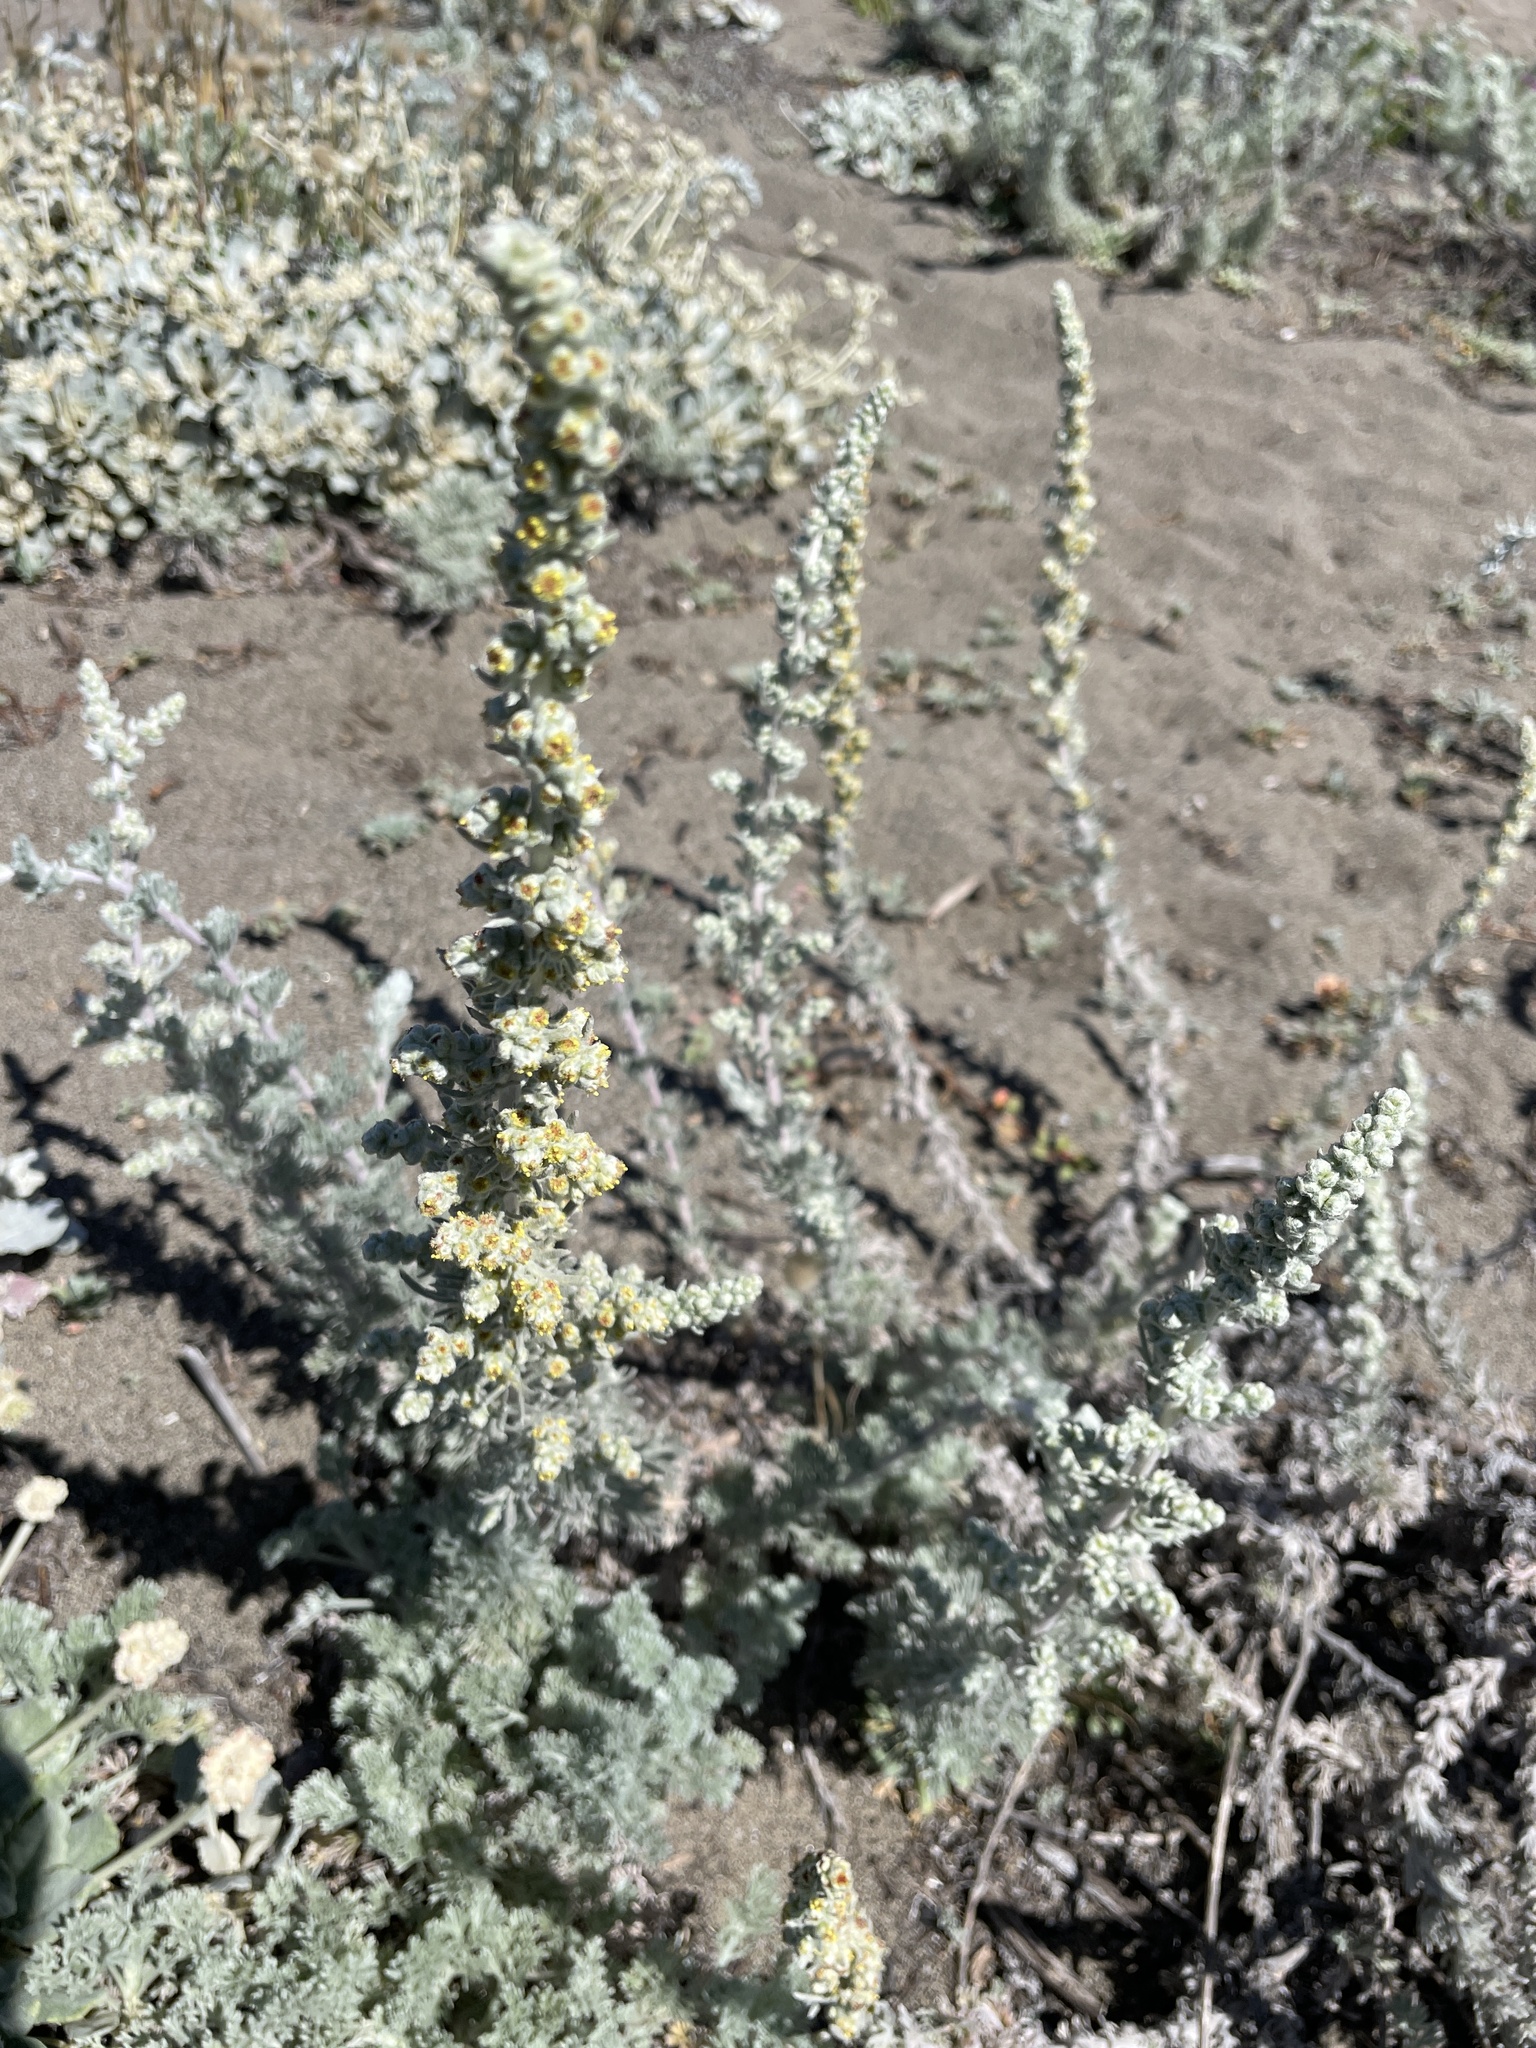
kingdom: Plantae
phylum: Tracheophyta
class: Magnoliopsida
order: Asterales
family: Asteraceae
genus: Artemisia
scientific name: Artemisia pycnocephala
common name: Coastal sagewort
